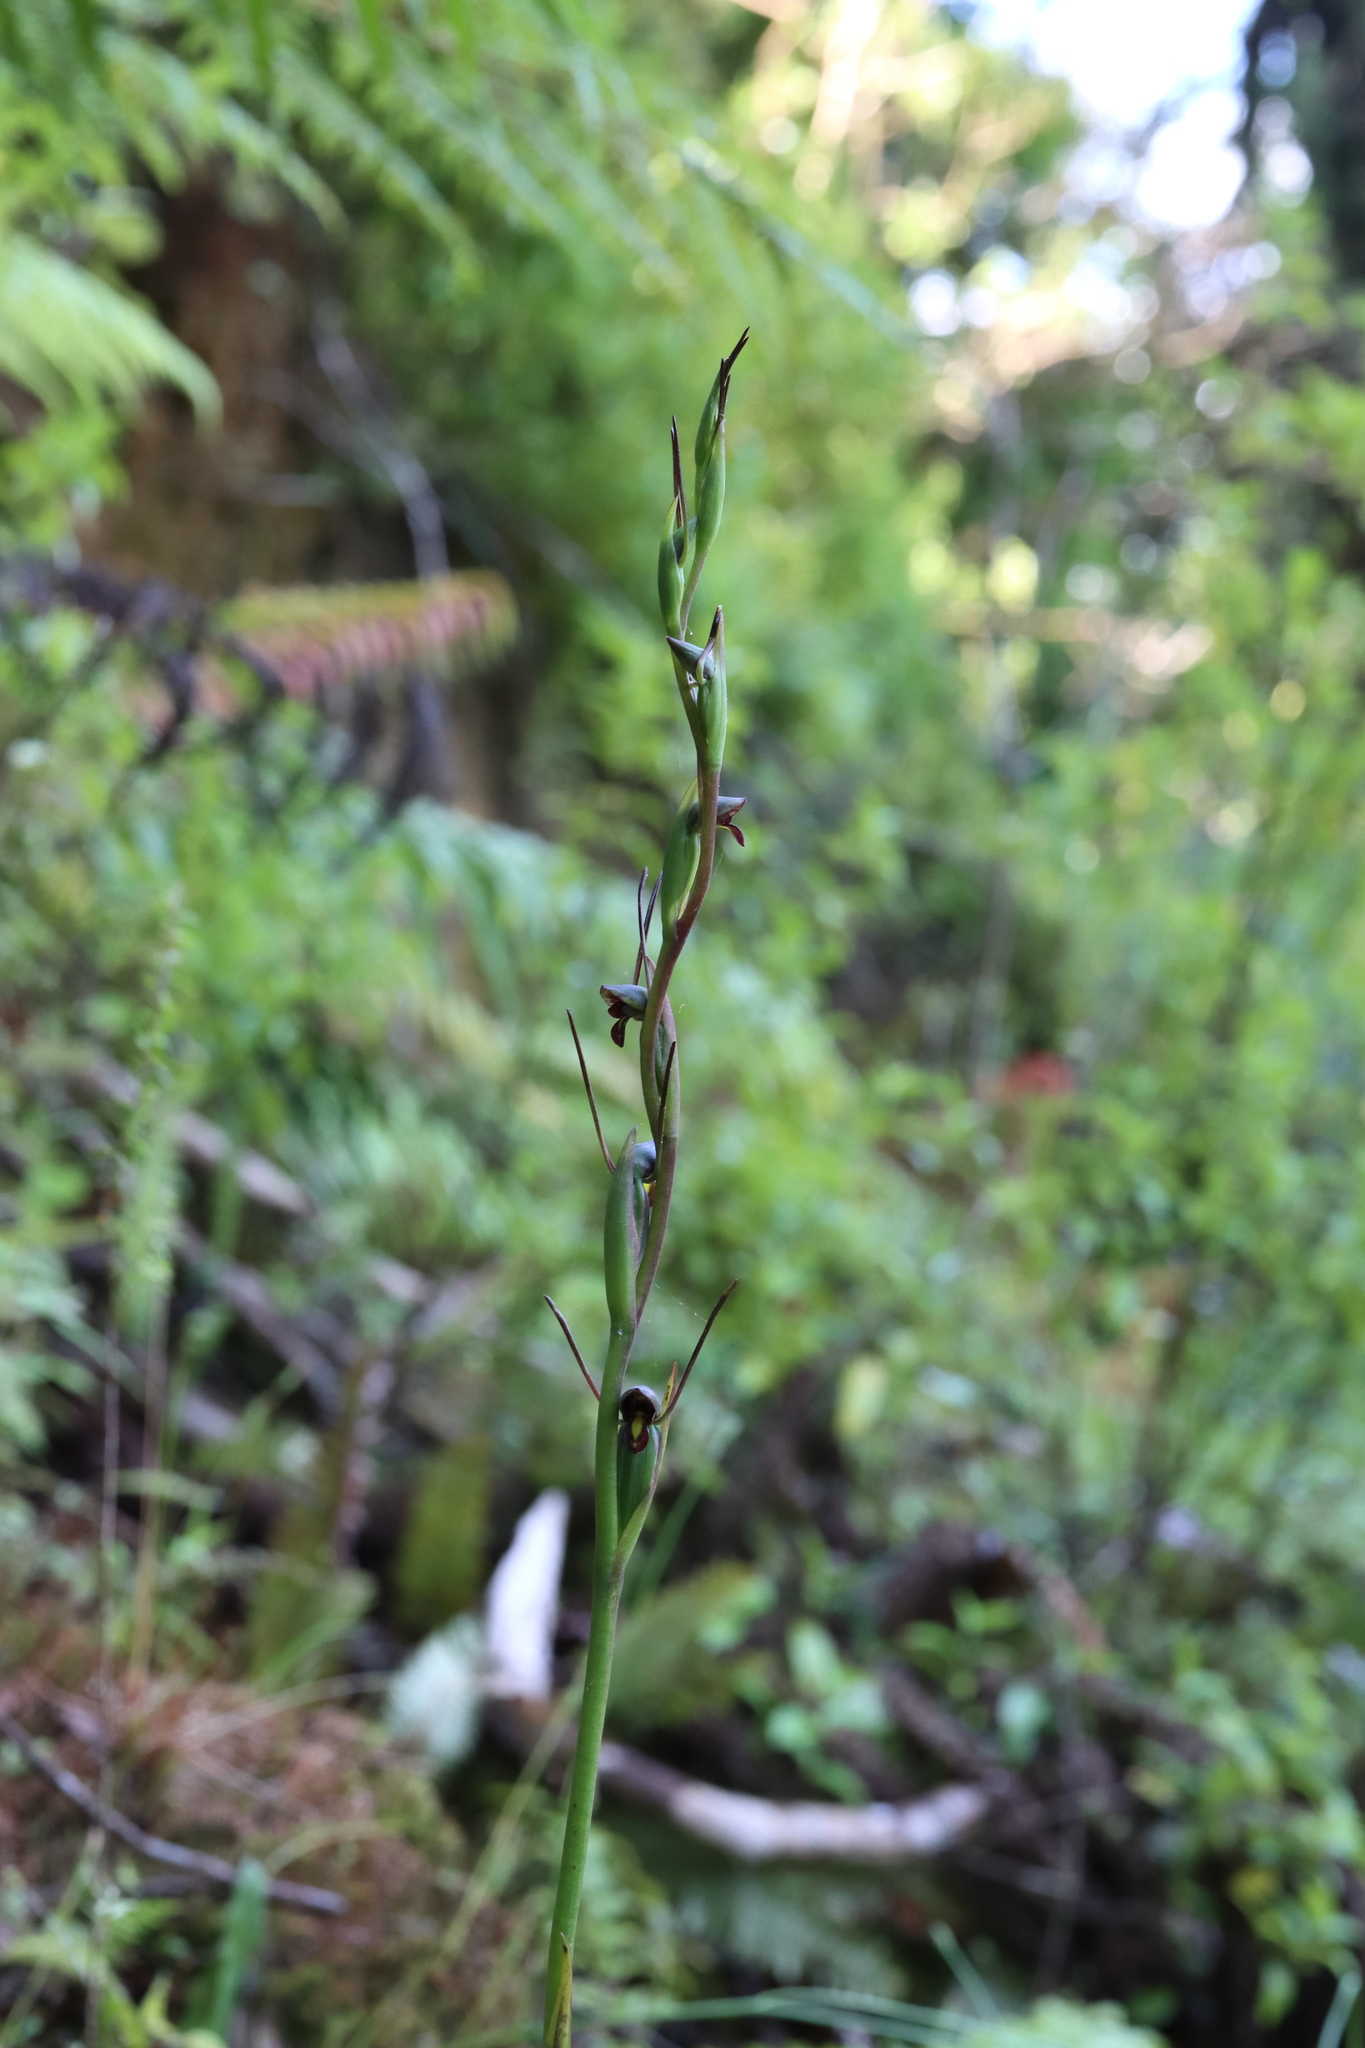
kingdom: Plantae
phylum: Tracheophyta
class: Liliopsida
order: Asparagales
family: Orchidaceae
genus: Orthoceras
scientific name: Orthoceras novae-zeelandiae
